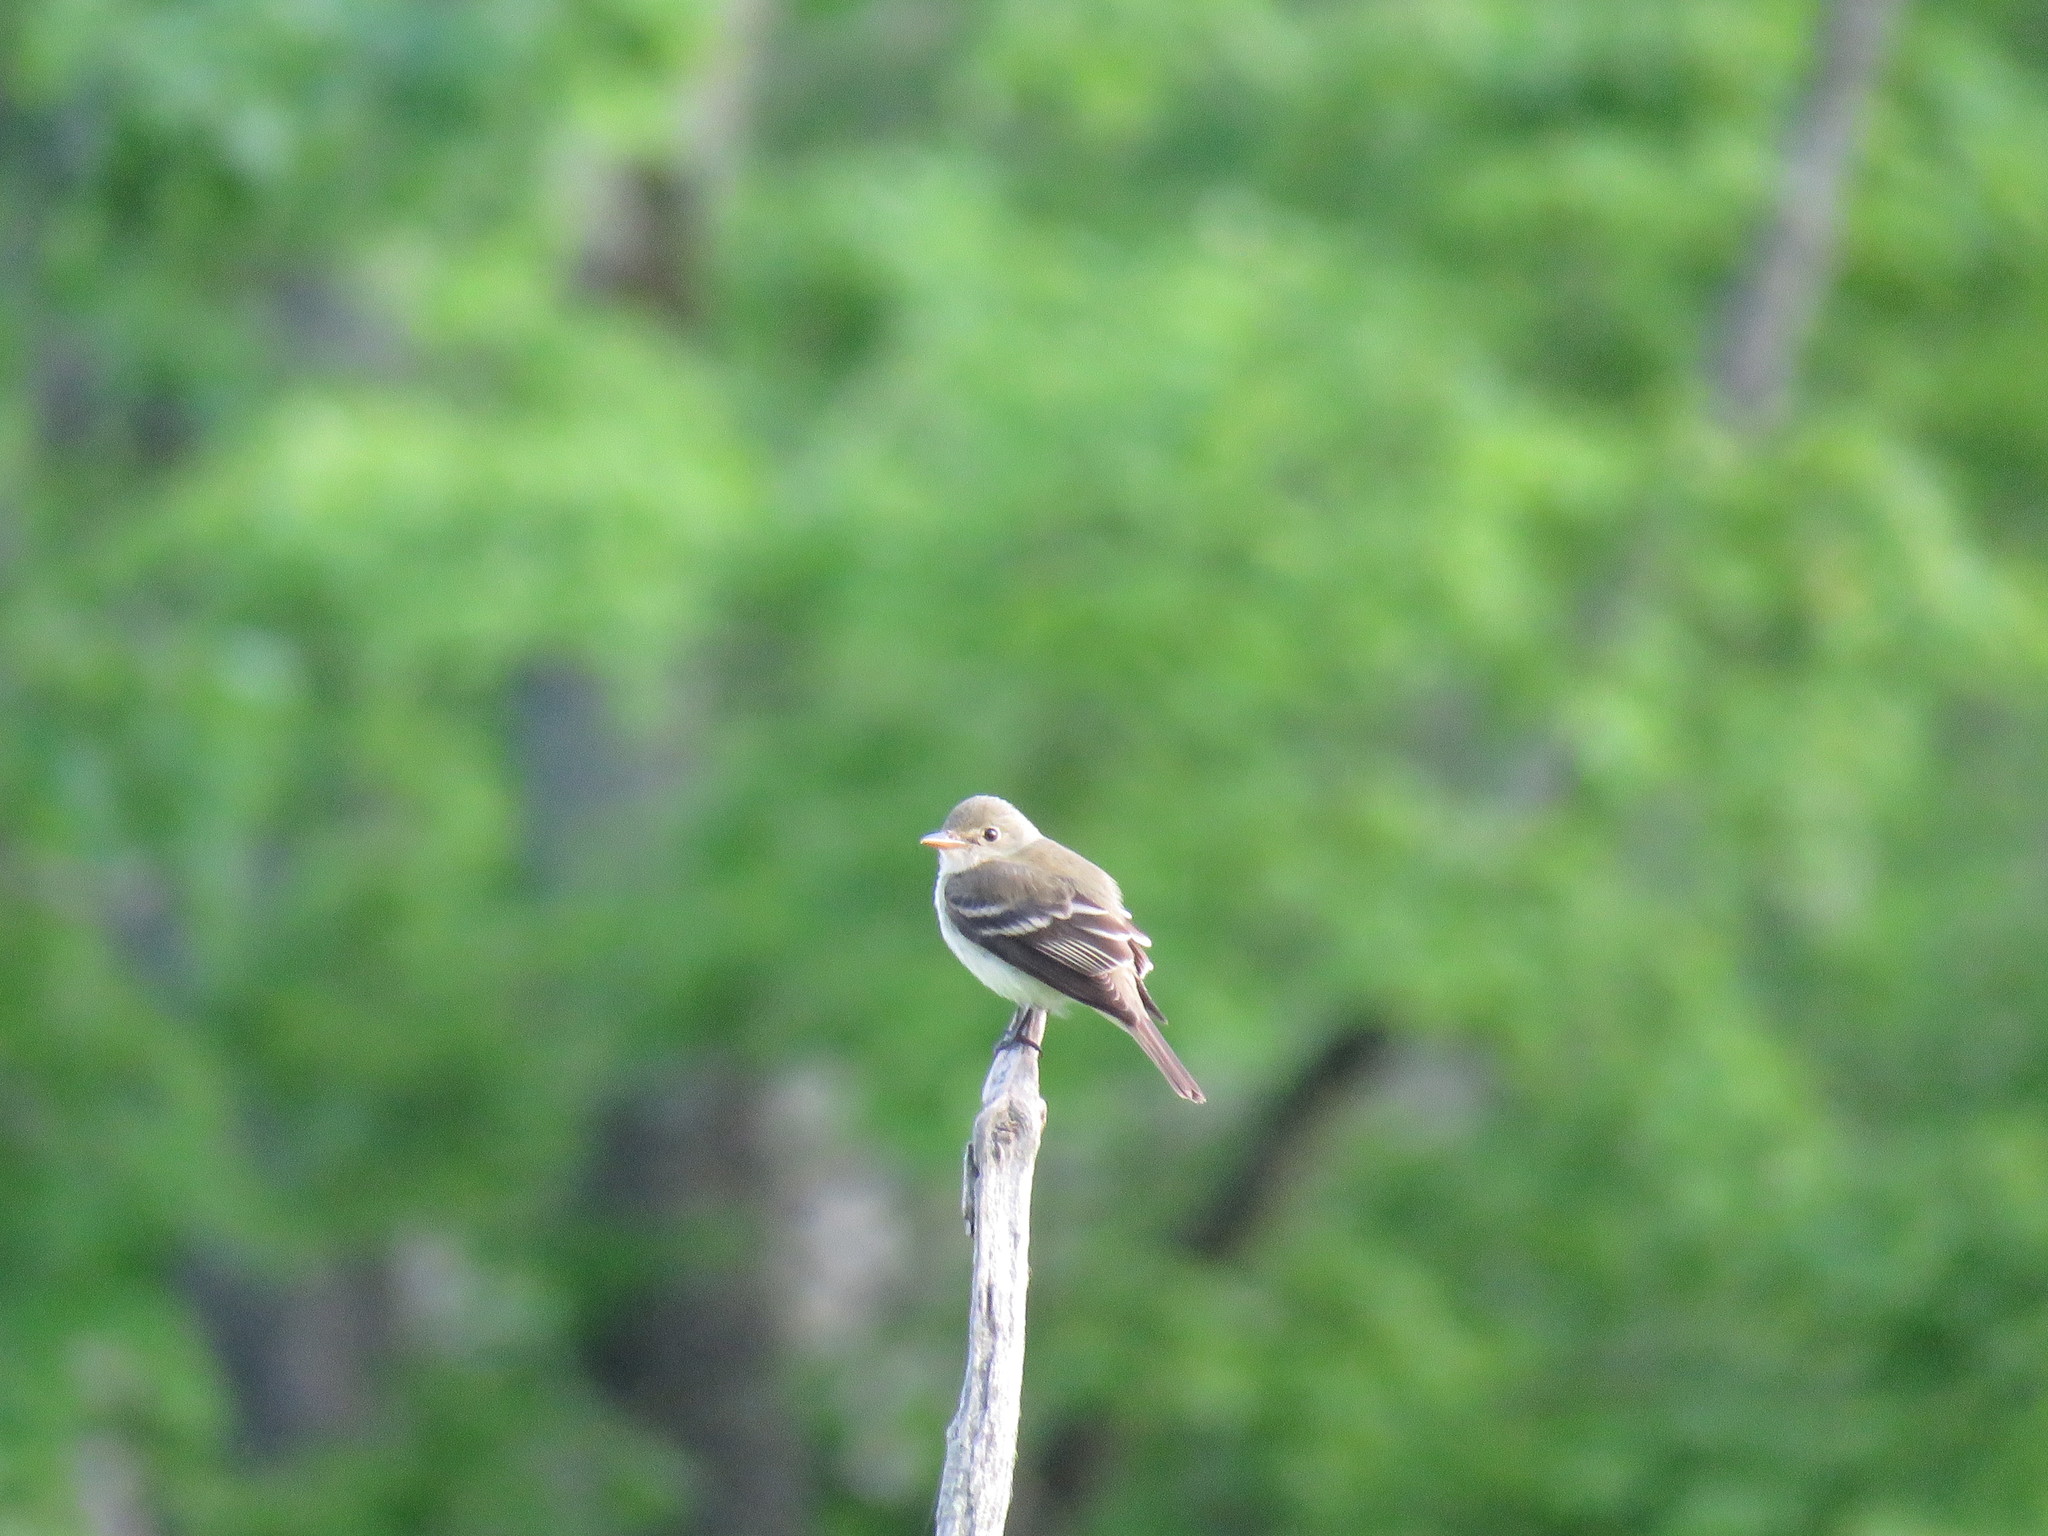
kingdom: Animalia
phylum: Chordata
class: Aves
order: Passeriformes
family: Tyrannidae
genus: Empidonax
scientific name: Empidonax alnorum
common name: Alder flycatcher
